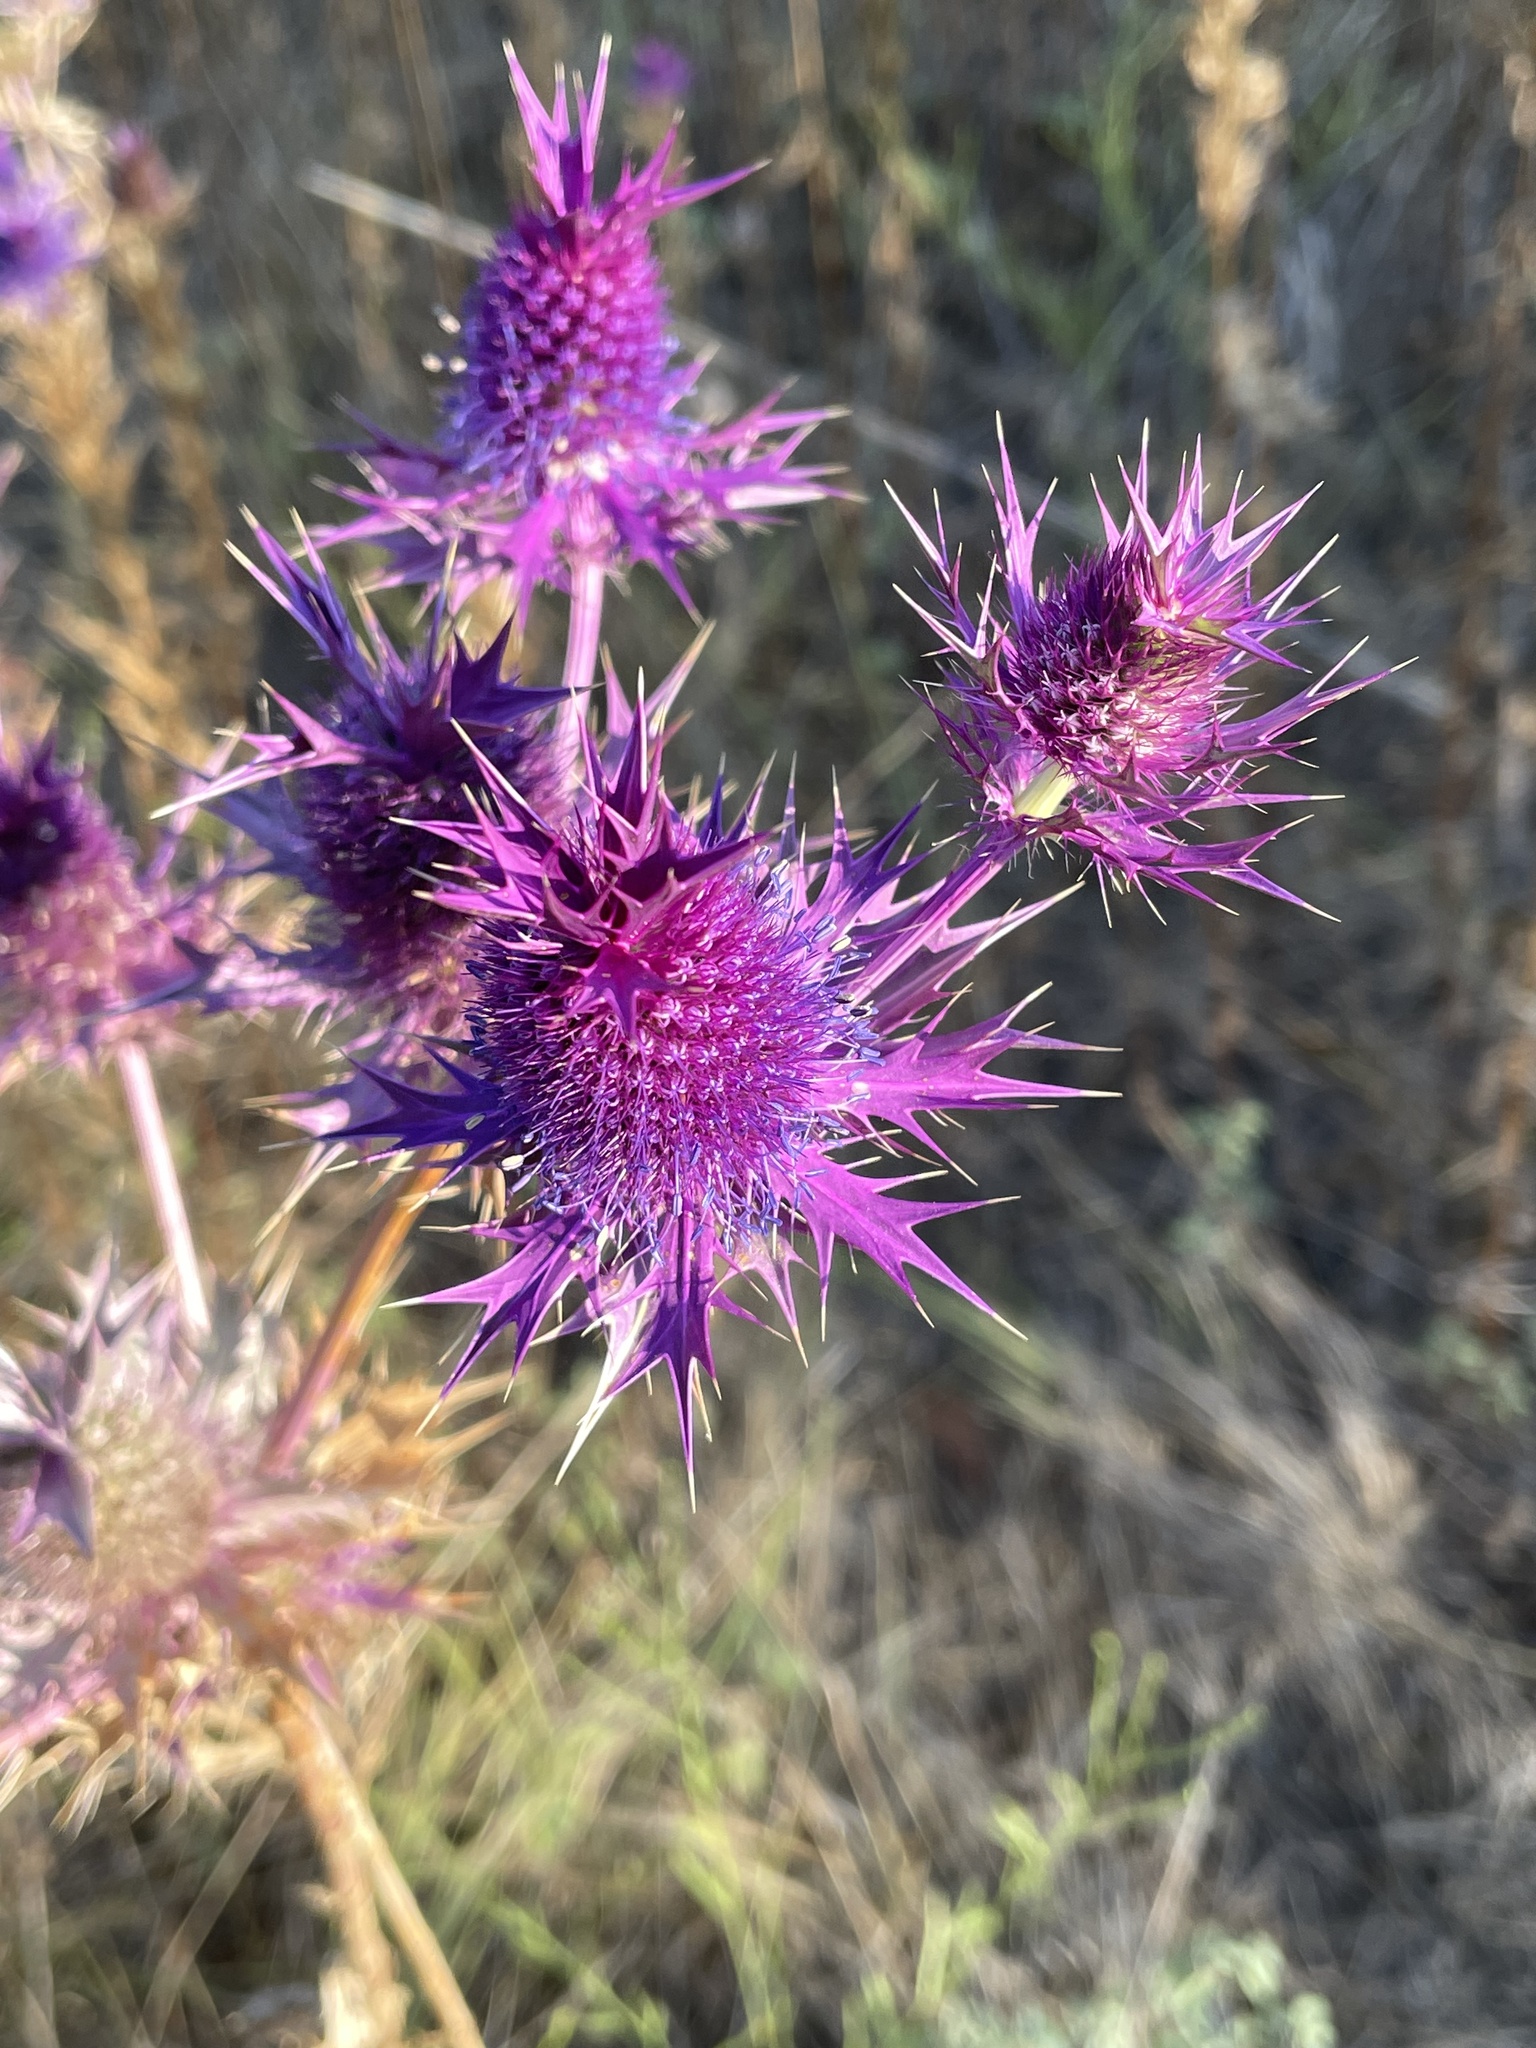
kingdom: Plantae
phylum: Tracheophyta
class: Magnoliopsida
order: Apiales
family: Apiaceae
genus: Eryngium
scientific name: Eryngium leavenworthii
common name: Leavenworth's eryngo
